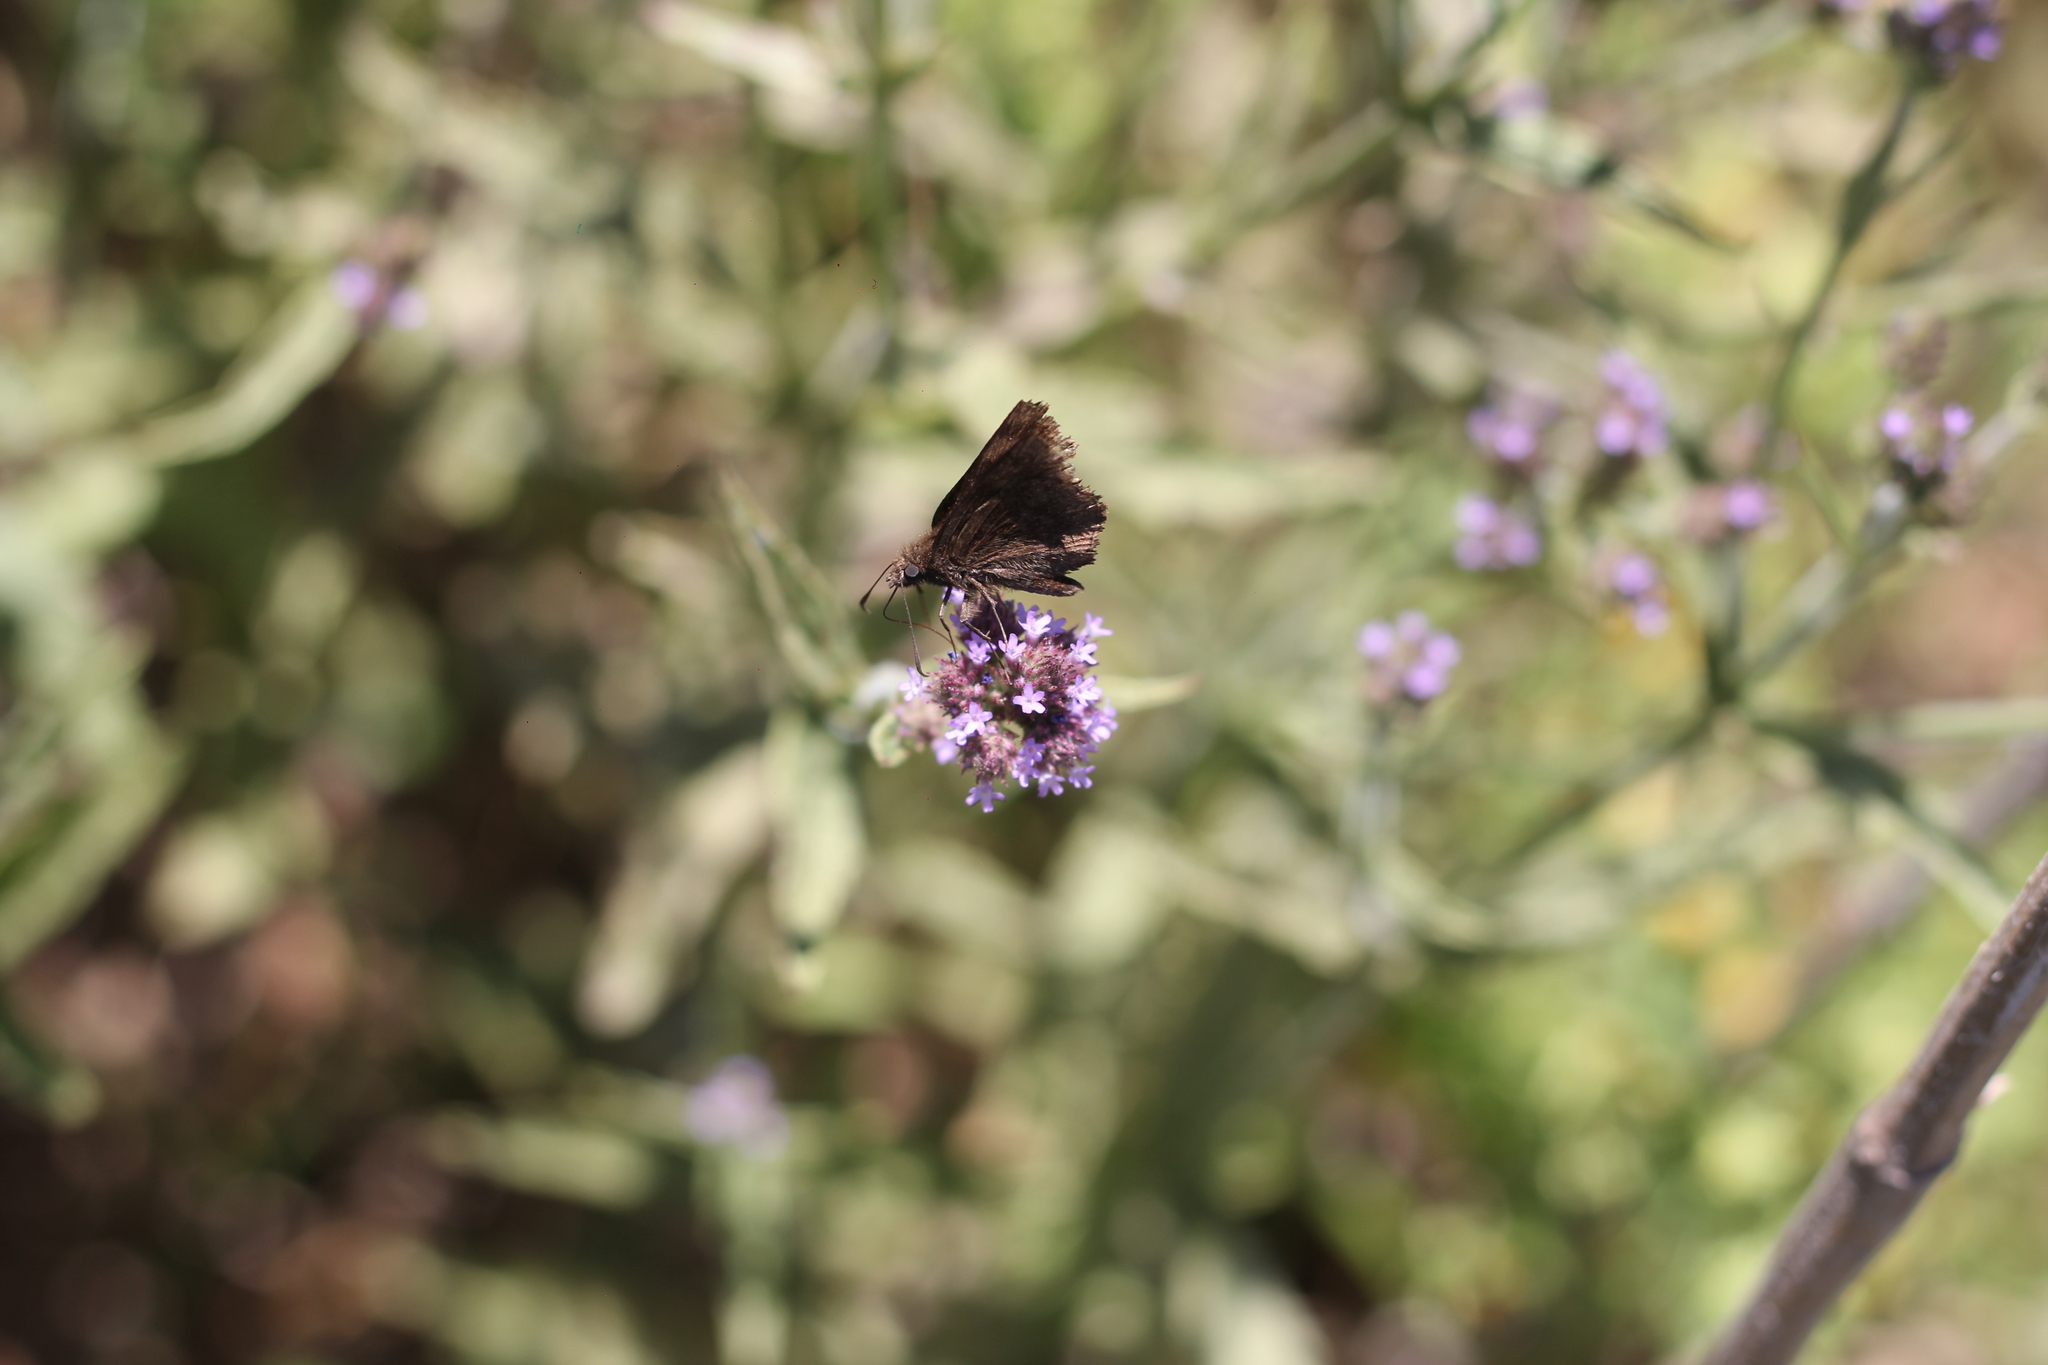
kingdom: Animalia
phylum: Arthropoda
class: Insecta
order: Lepidoptera
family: Hesperiidae
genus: Viola
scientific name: Viola minor
